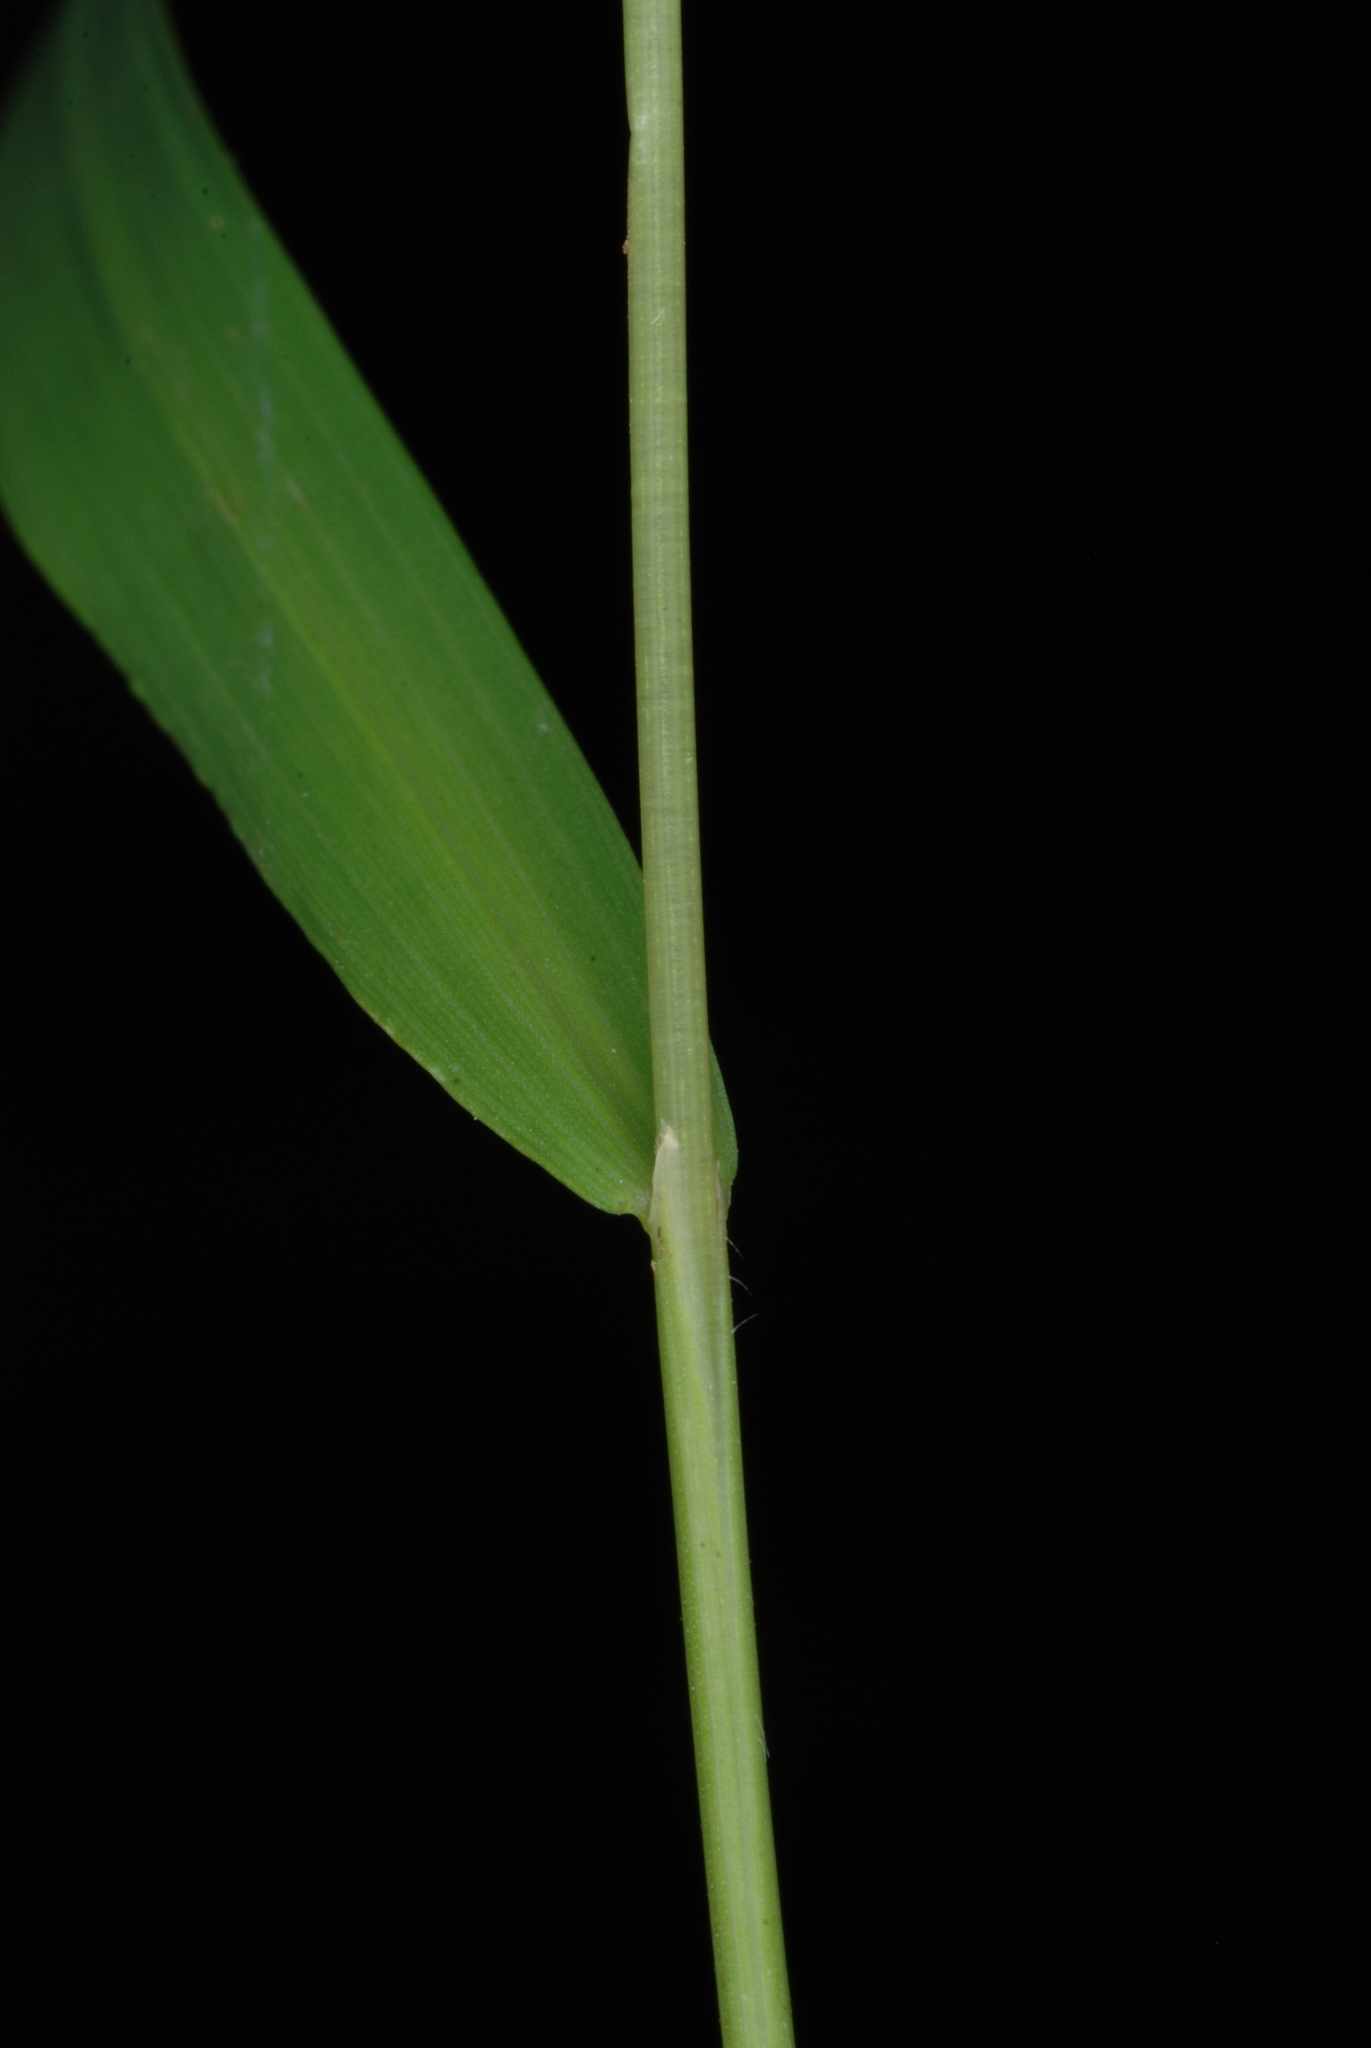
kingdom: Plantae
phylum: Tracheophyta
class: Liliopsida
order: Poales
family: Poaceae
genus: Leersia
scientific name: Leersia virginica
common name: White cutgrass
